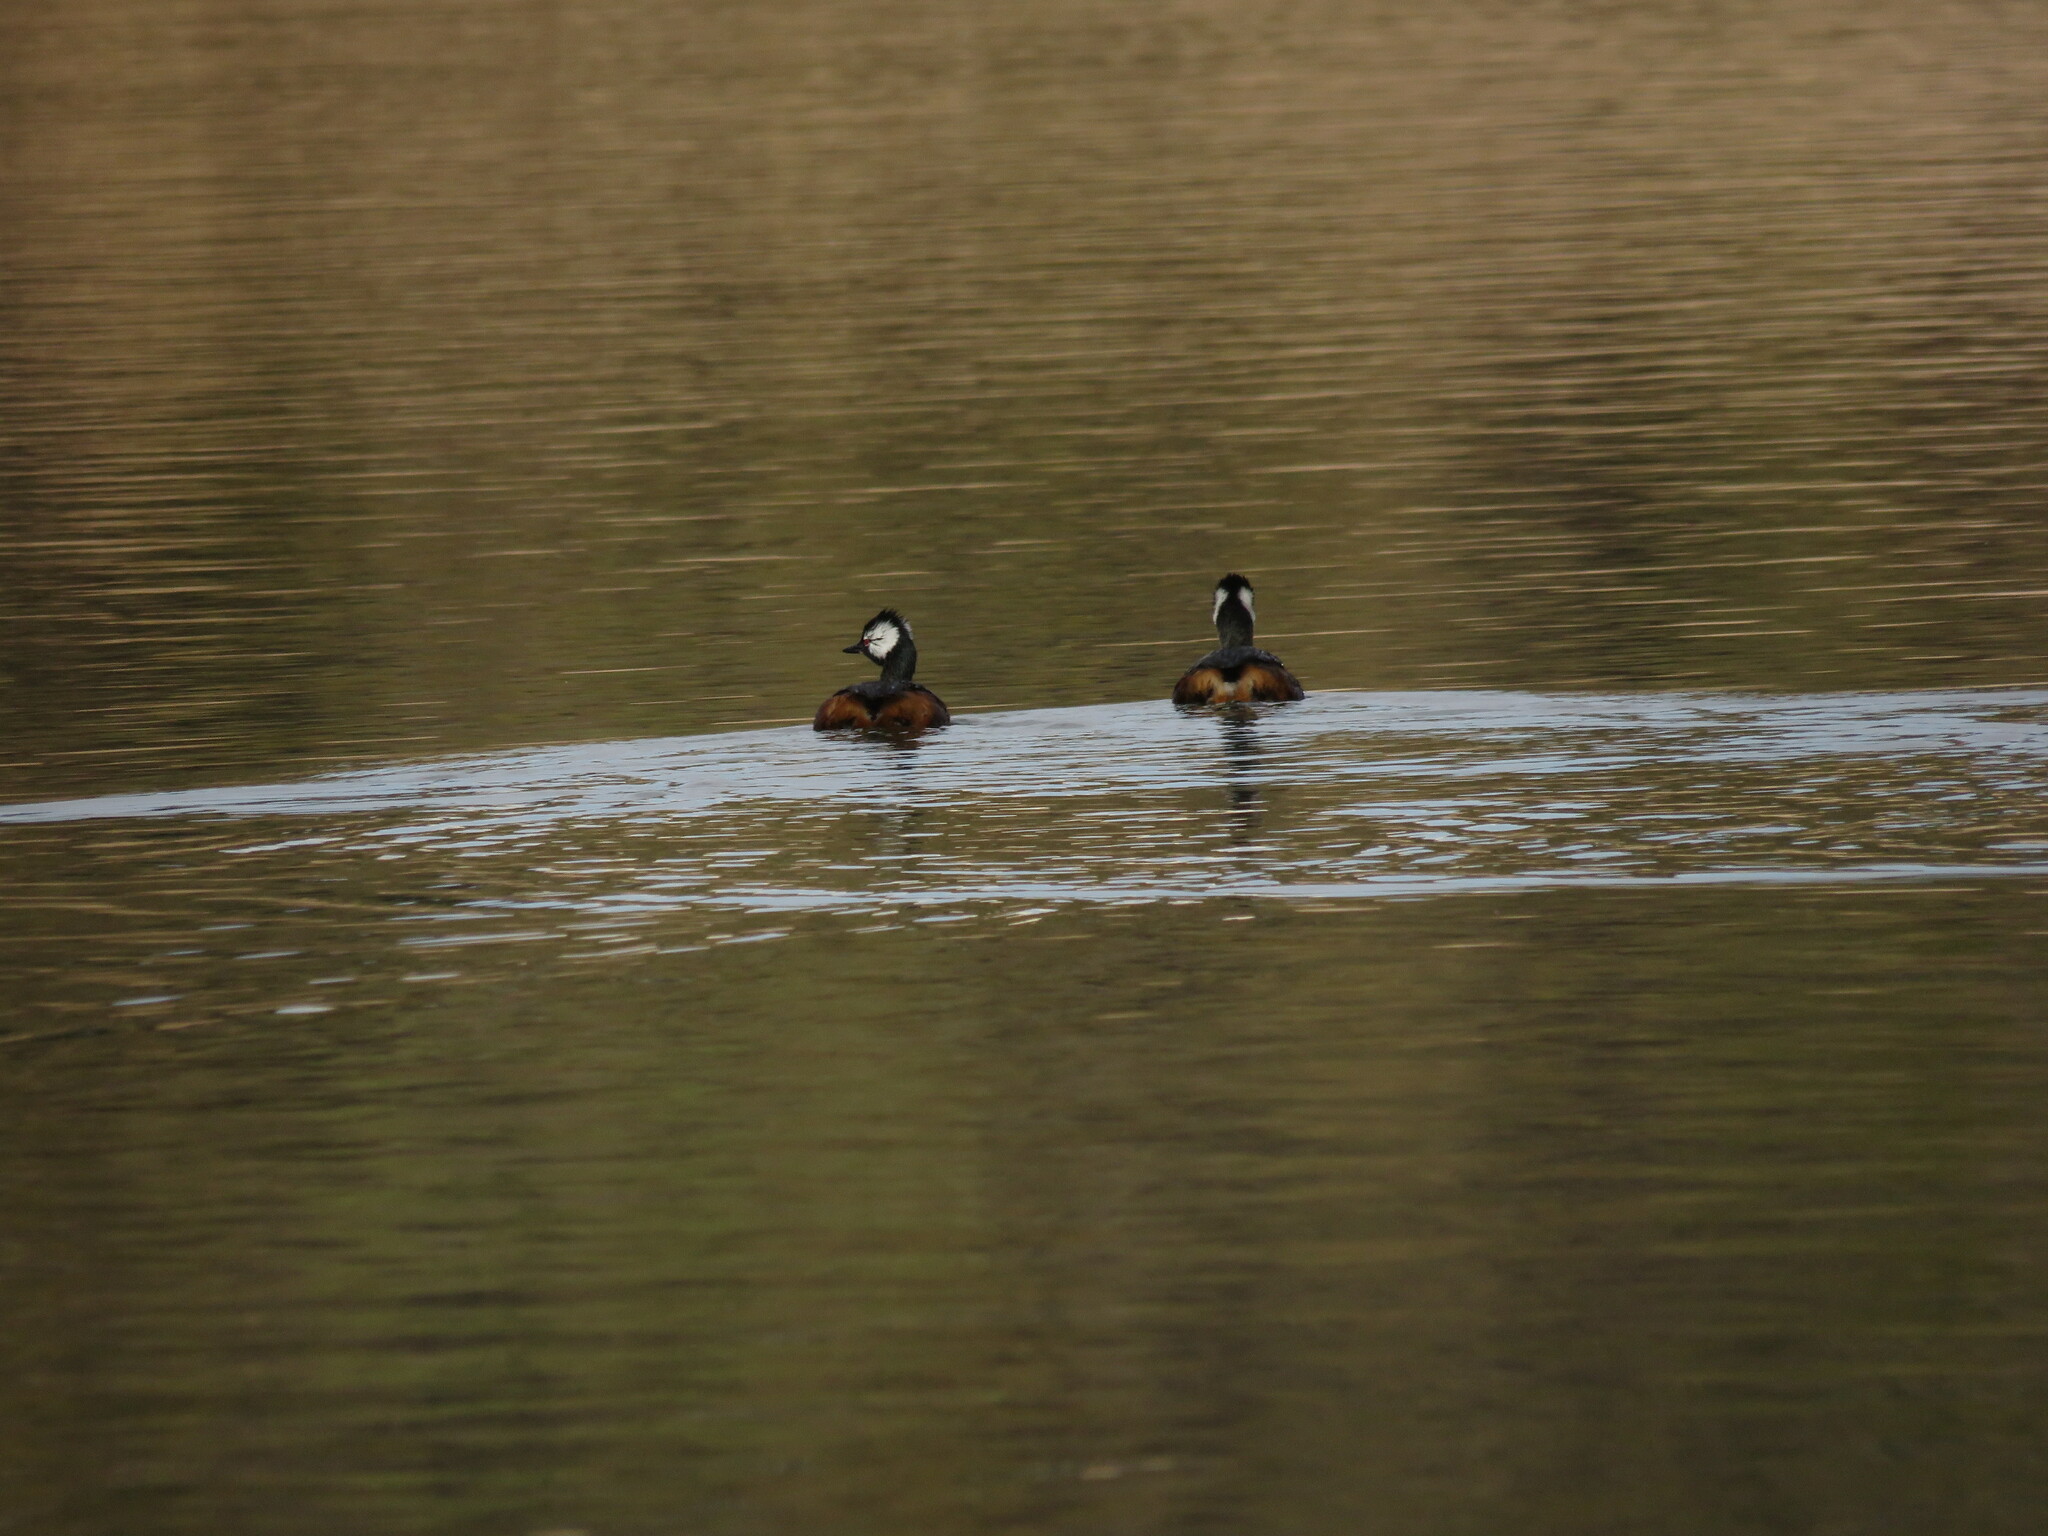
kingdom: Animalia
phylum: Chordata
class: Aves
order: Podicipediformes
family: Podicipedidae
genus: Rollandia
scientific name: Rollandia rolland
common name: White-tufted grebe
